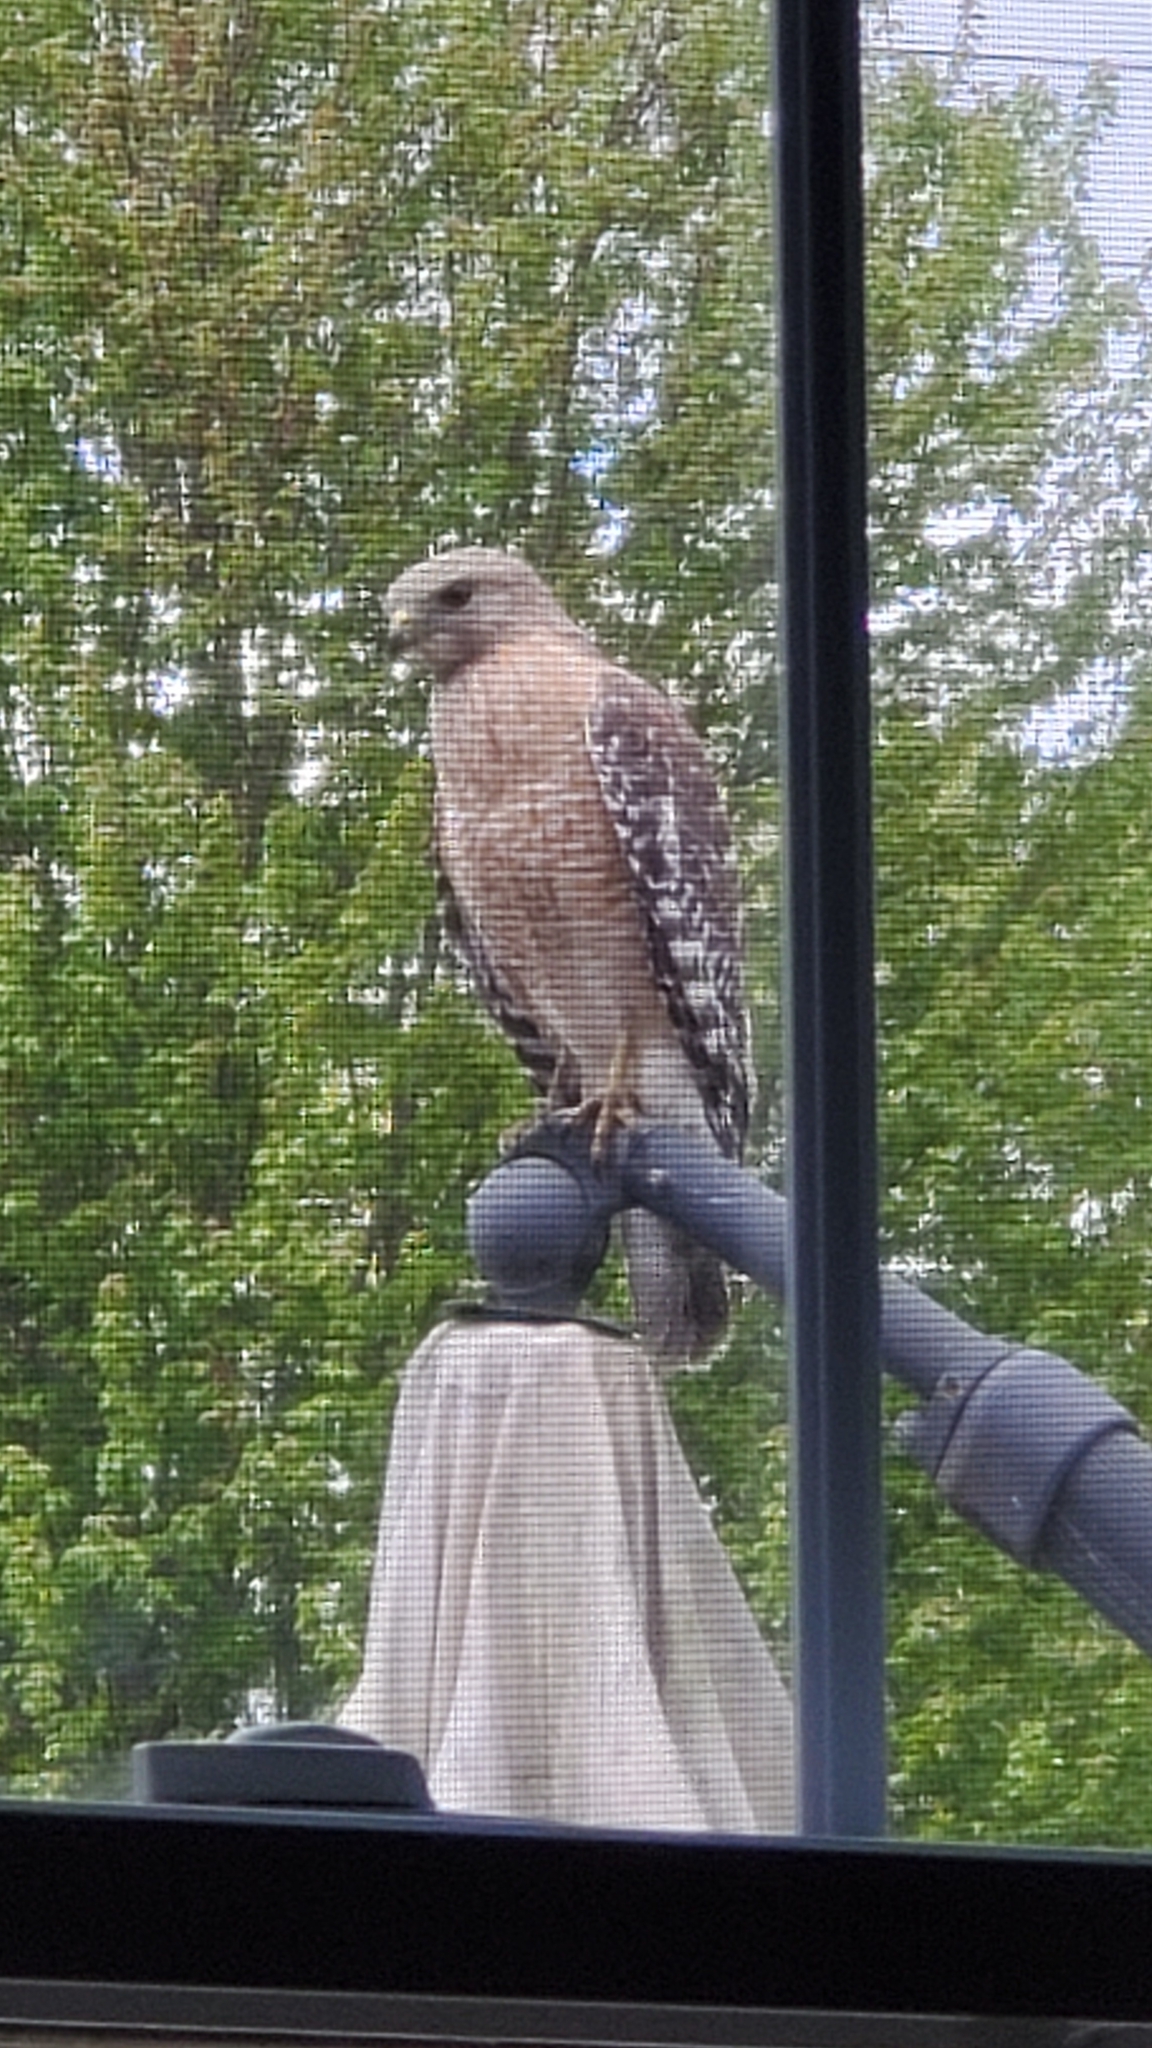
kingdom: Animalia
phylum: Chordata
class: Aves
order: Accipitriformes
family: Accipitridae
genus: Buteo
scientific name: Buteo lineatus
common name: Red-shouldered hawk
